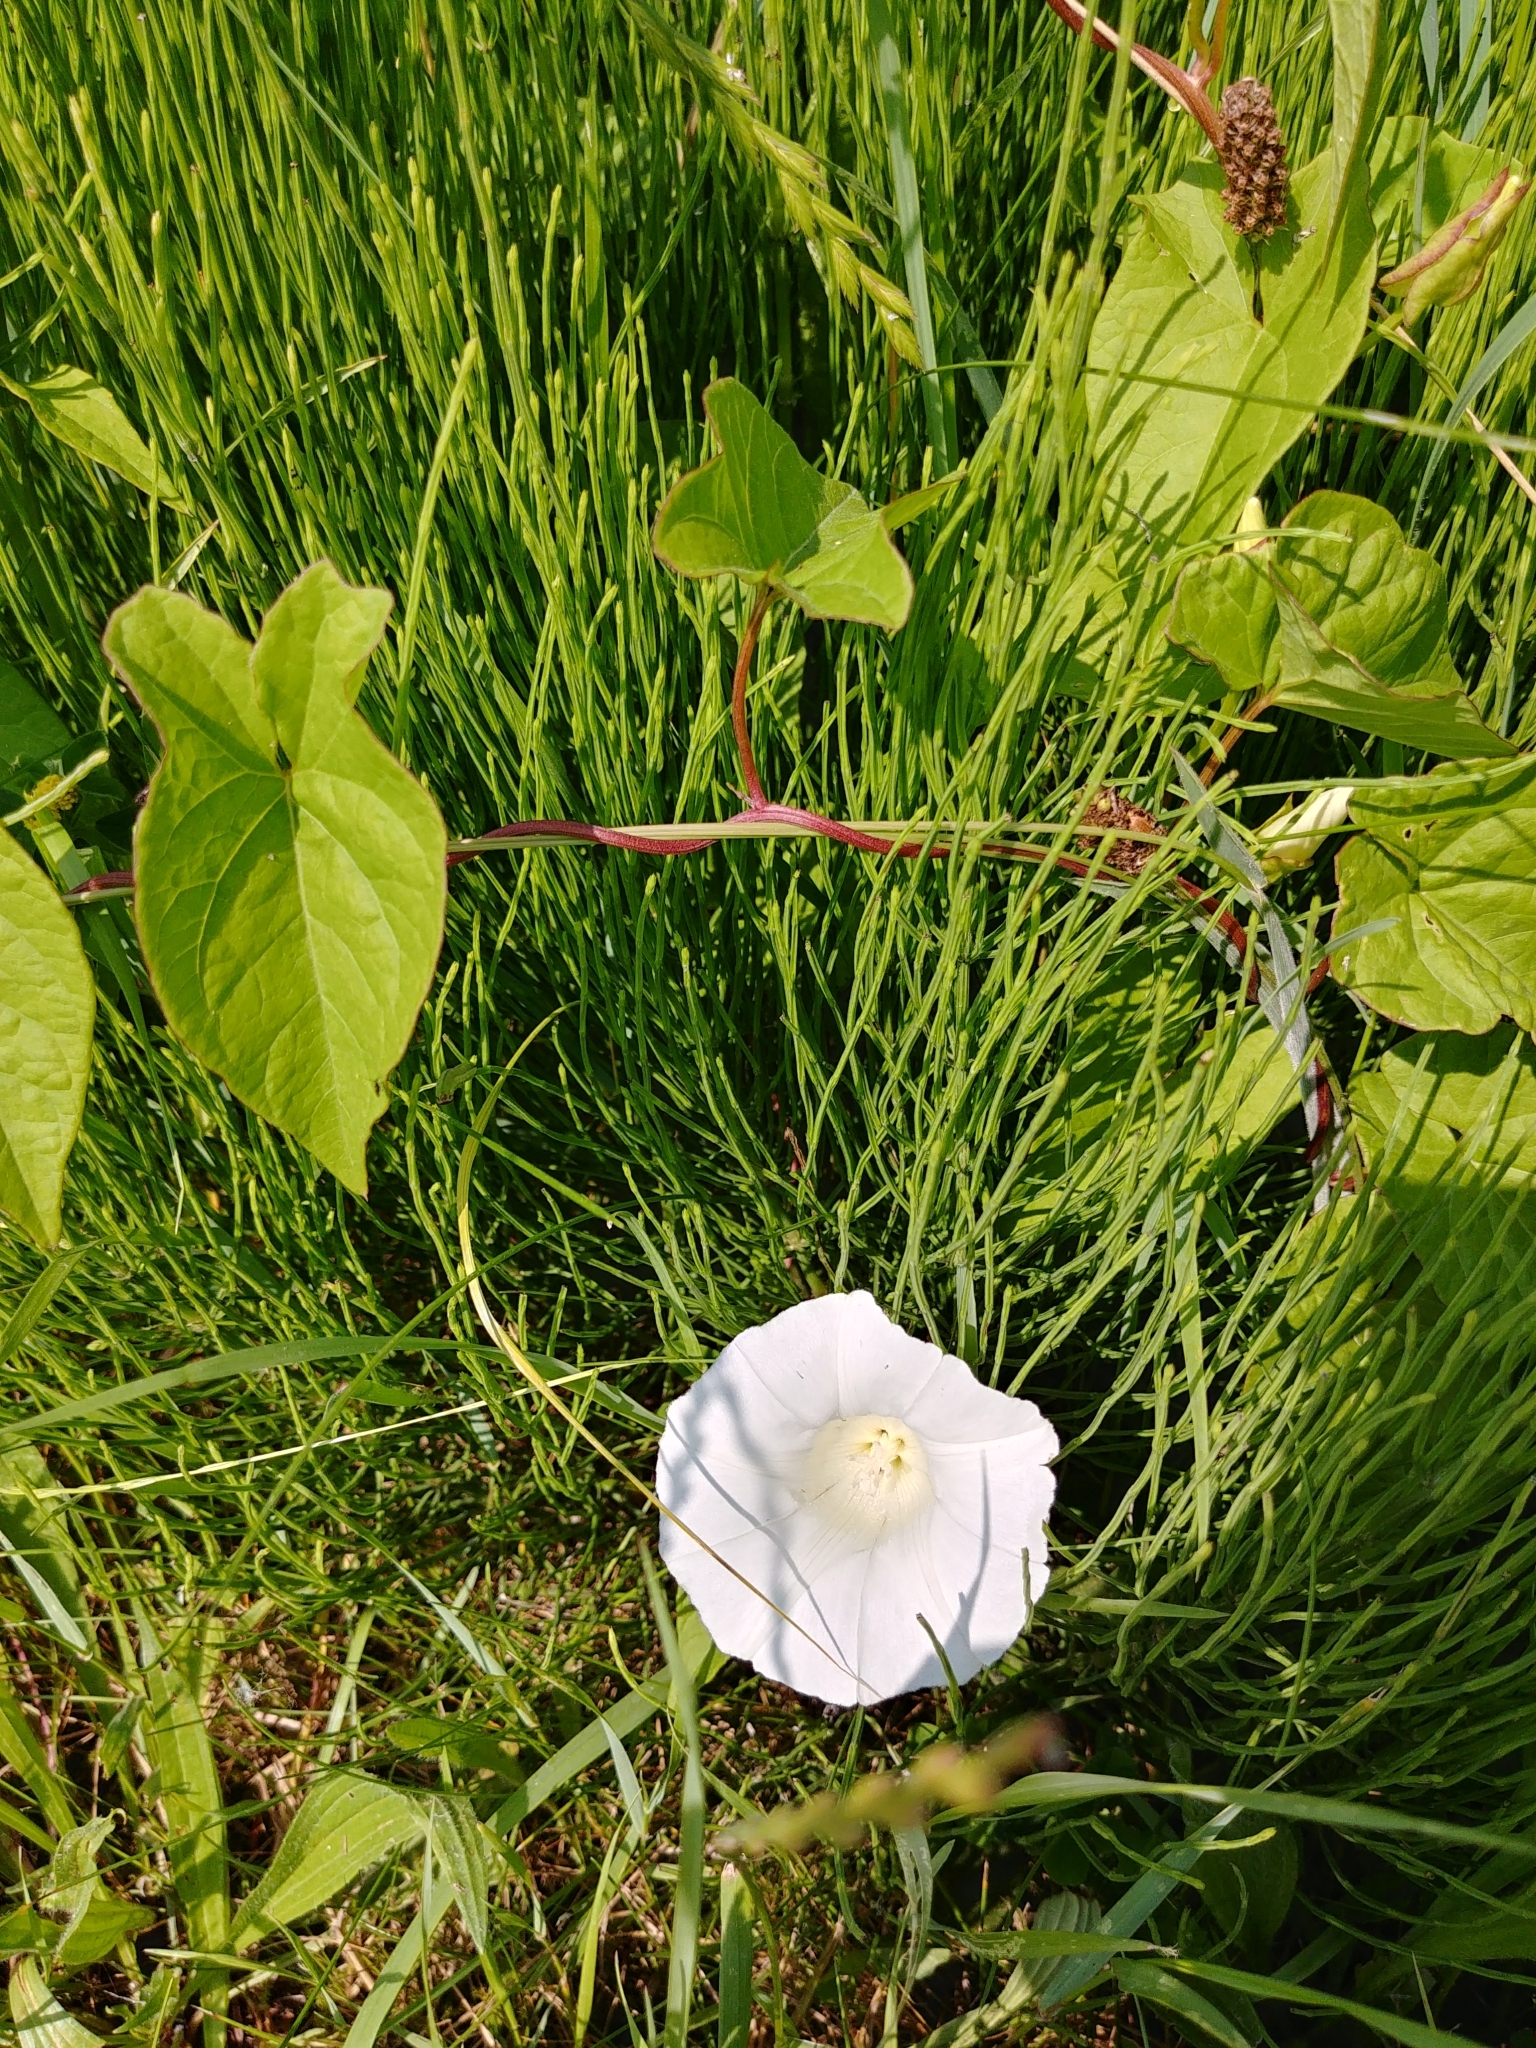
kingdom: Plantae
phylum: Tracheophyta
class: Magnoliopsida
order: Solanales
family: Convolvulaceae
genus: Calystegia
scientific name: Calystegia sepium
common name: Hedge bindweed
